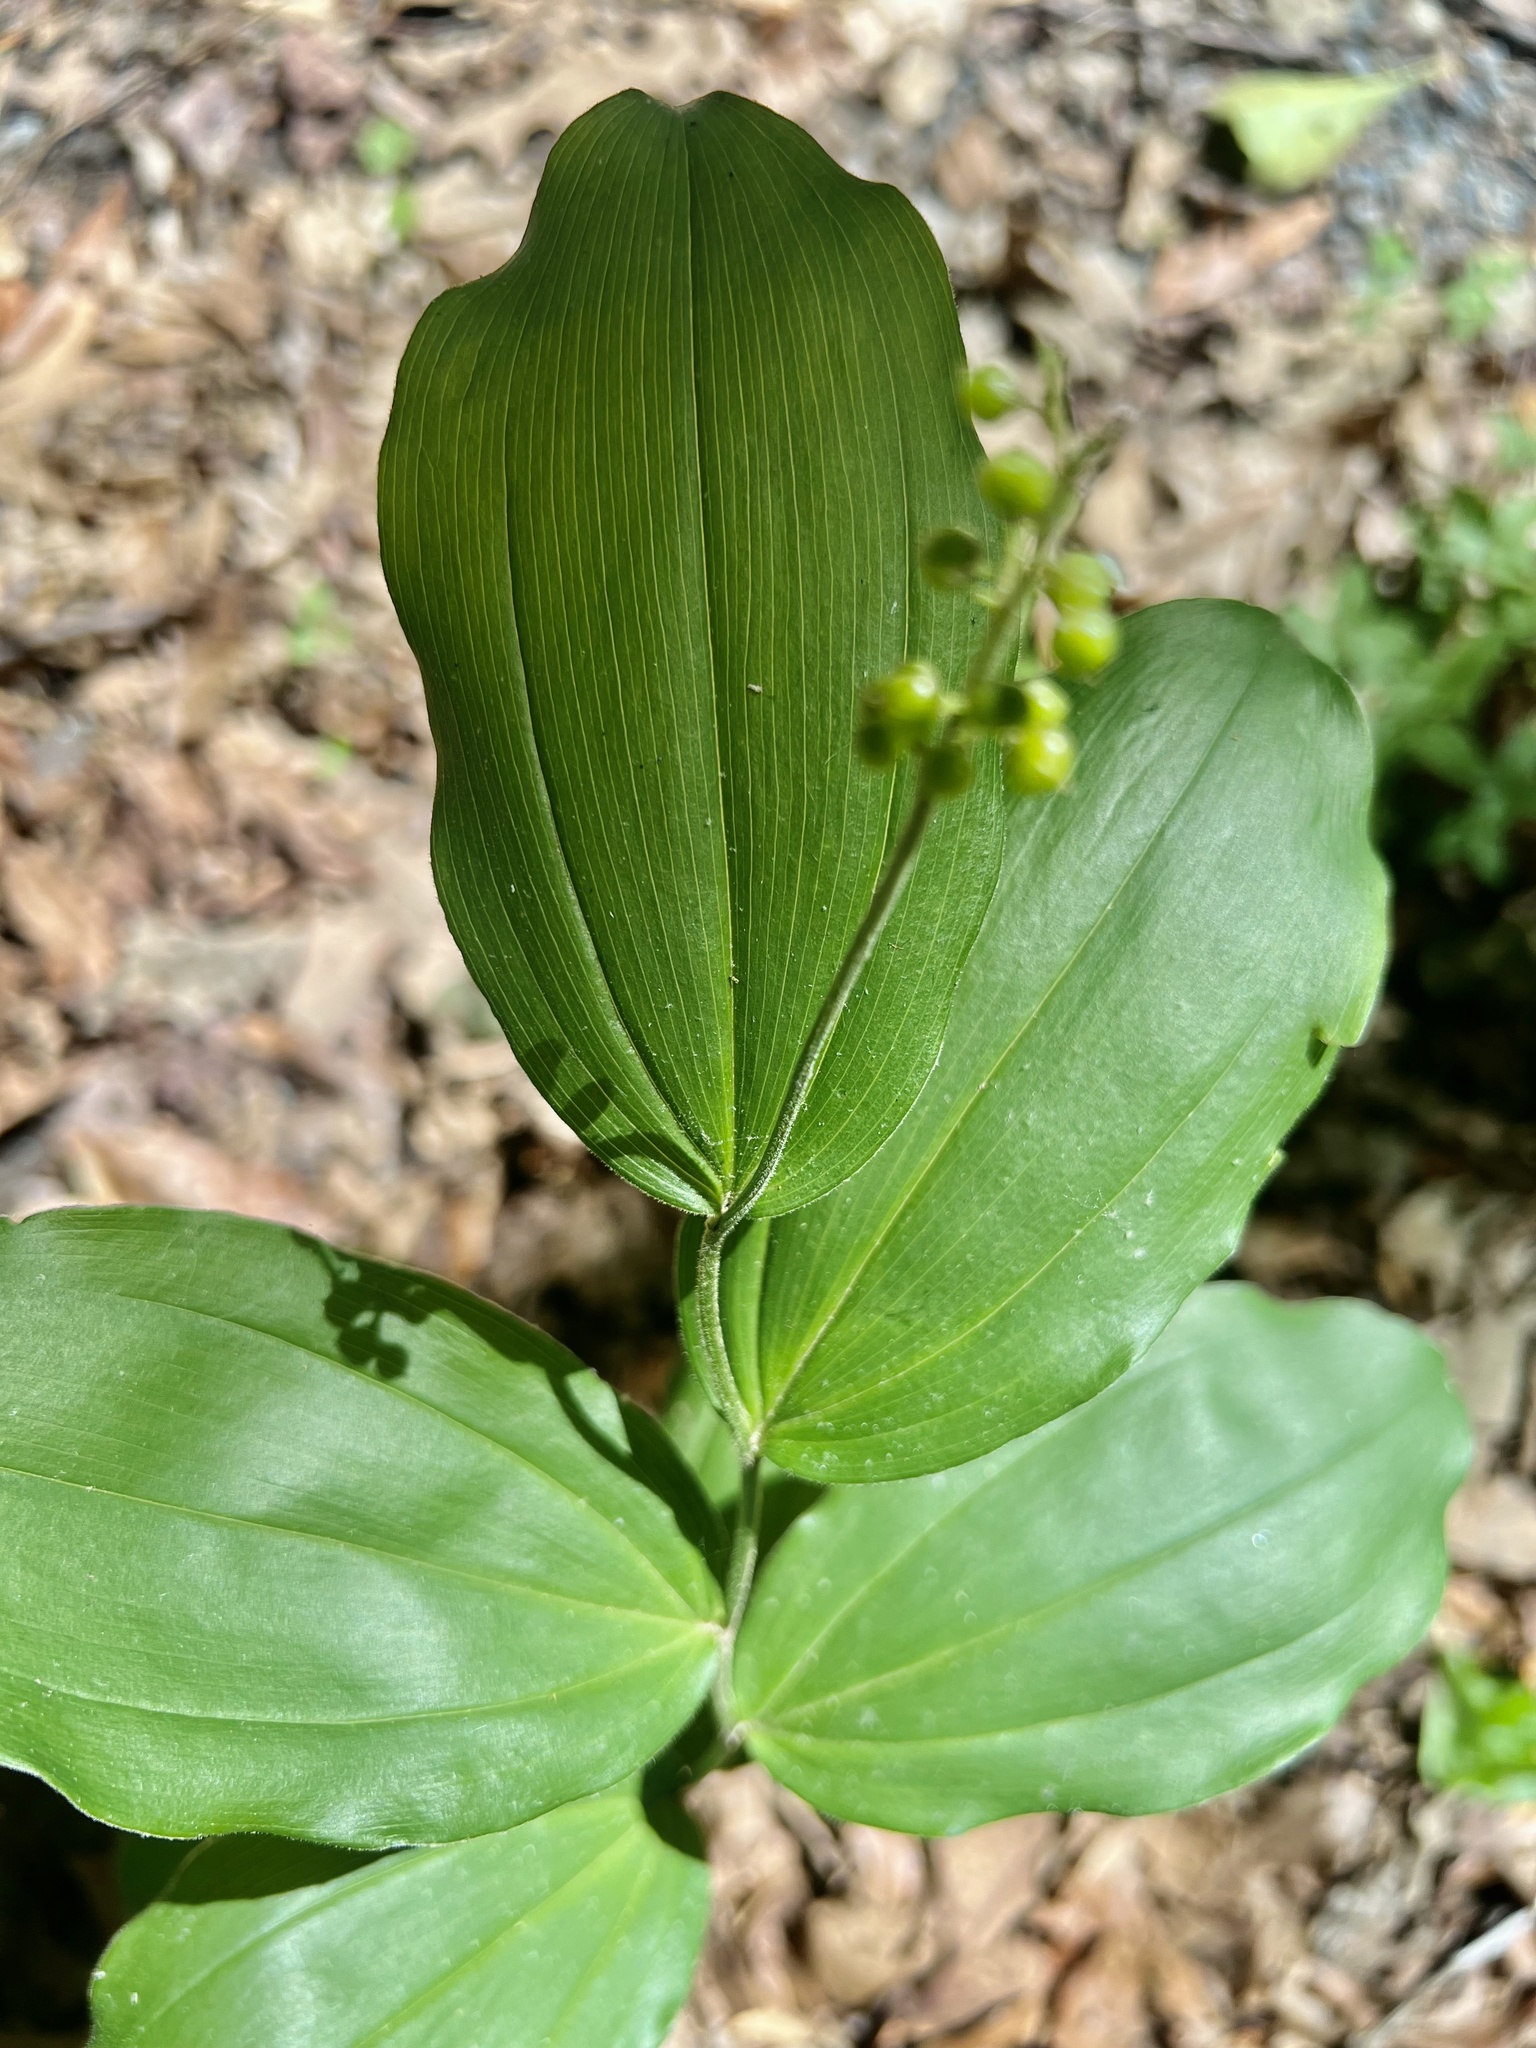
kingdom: Plantae
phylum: Tracheophyta
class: Liliopsida
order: Asparagales
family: Asparagaceae
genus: Maianthemum
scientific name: Maianthemum racemosum
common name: False spikenard
